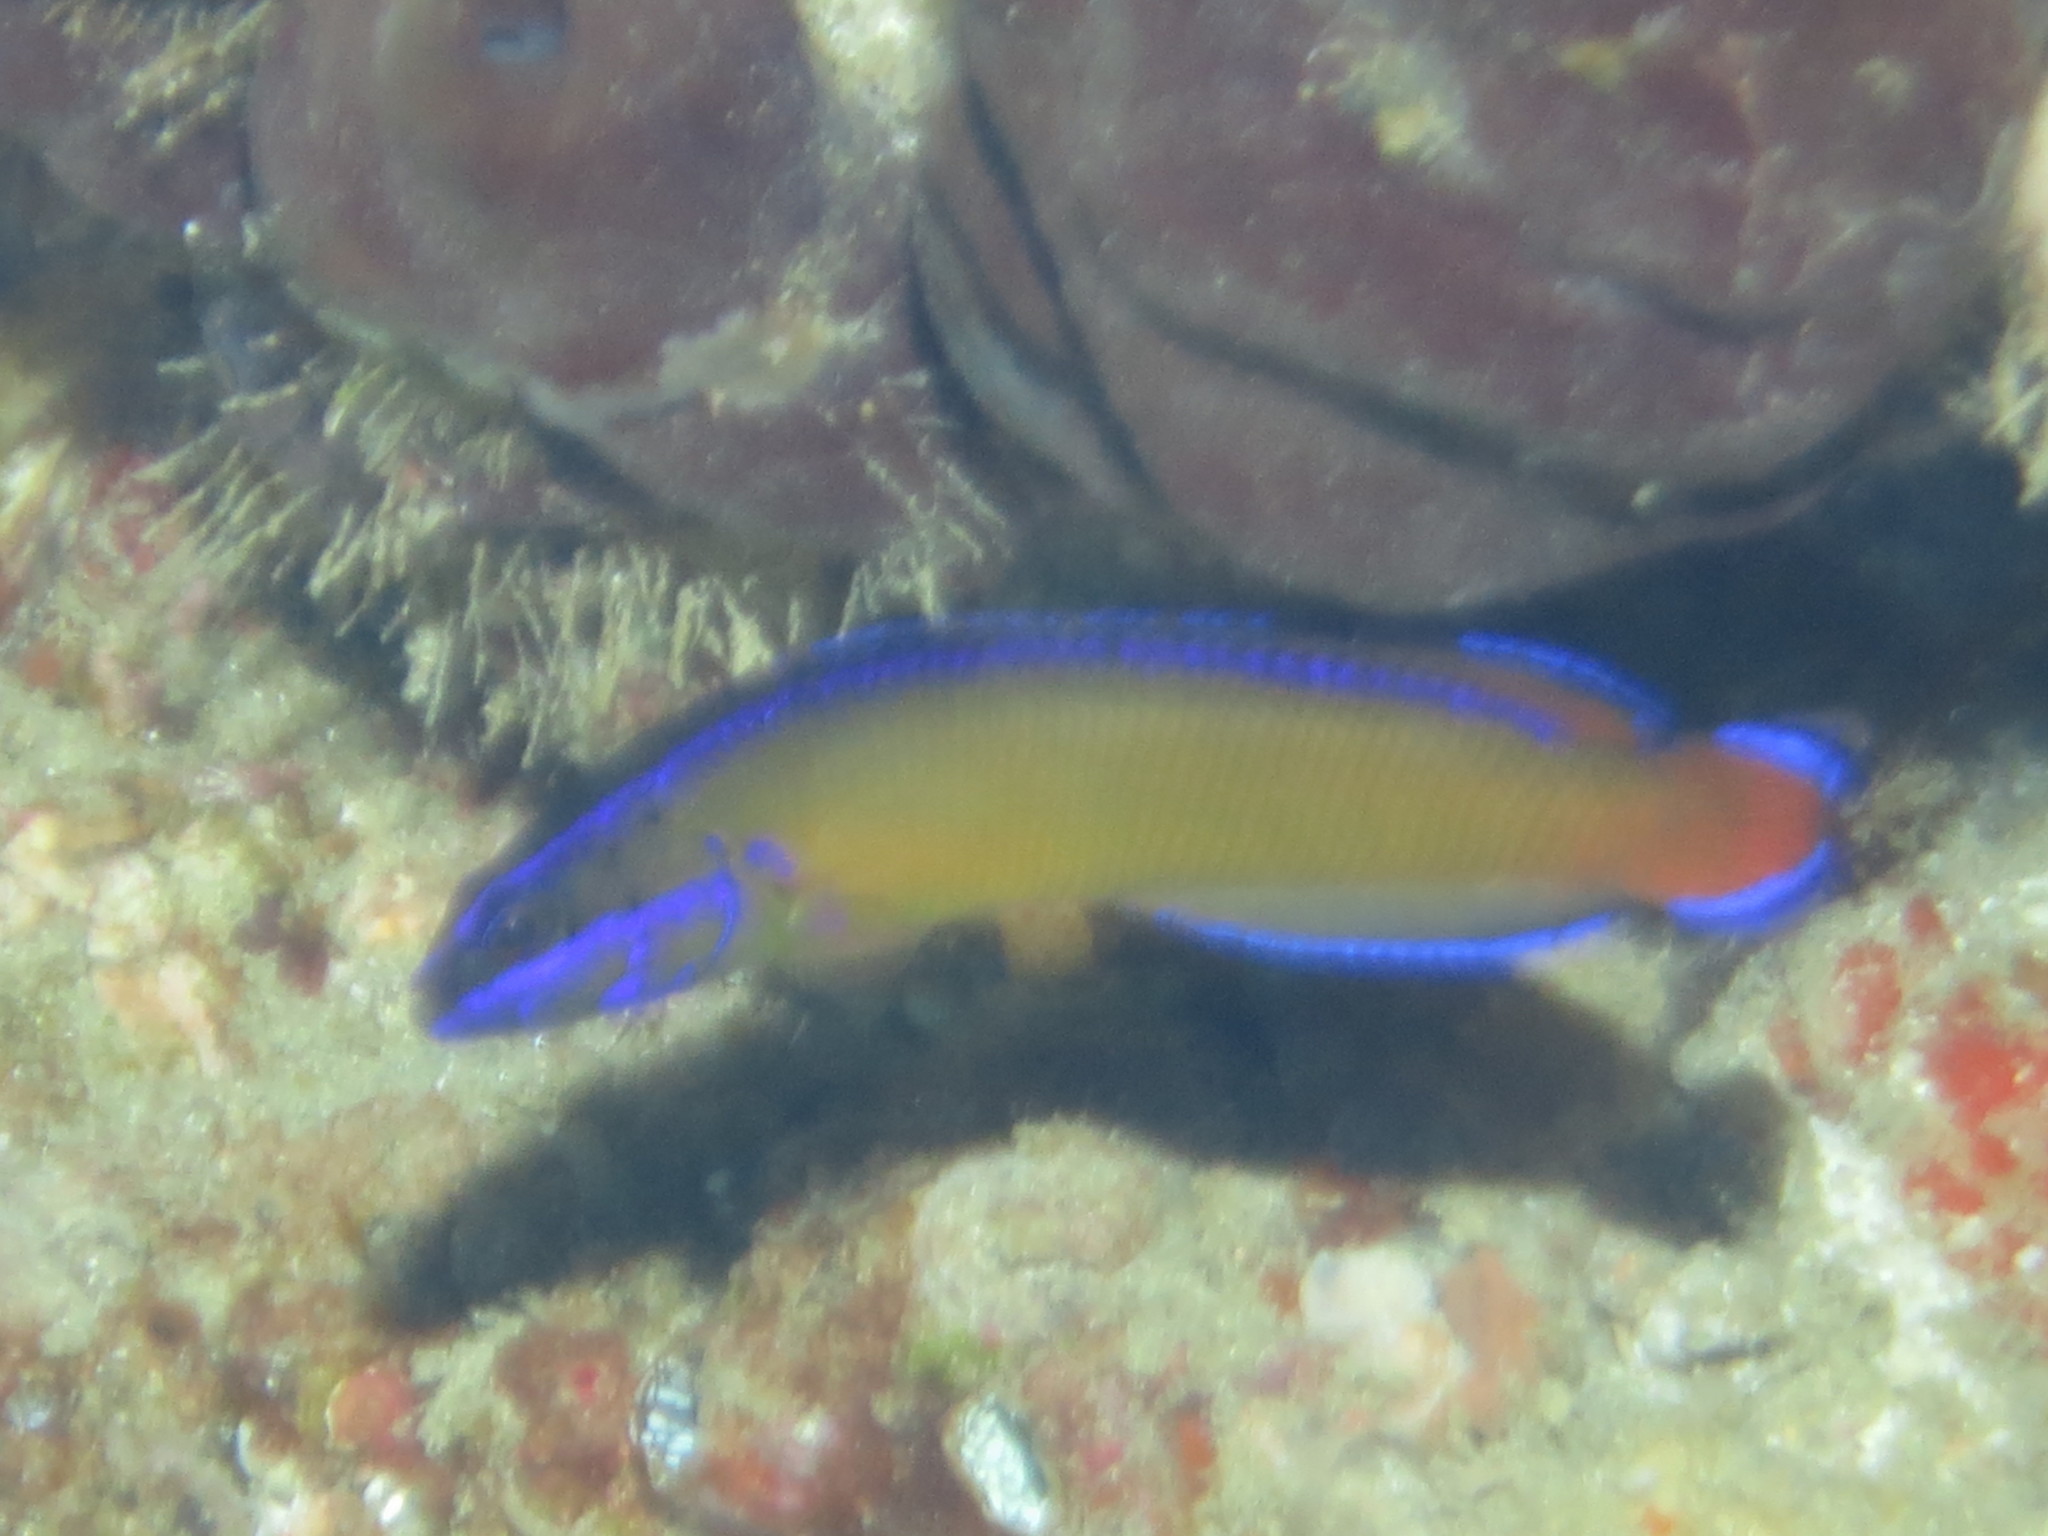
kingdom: Animalia
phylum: Chordata
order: Perciformes
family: Pseudochromidae
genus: Pseudochromis
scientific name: Pseudochromis dutoiti
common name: Dutoiti
